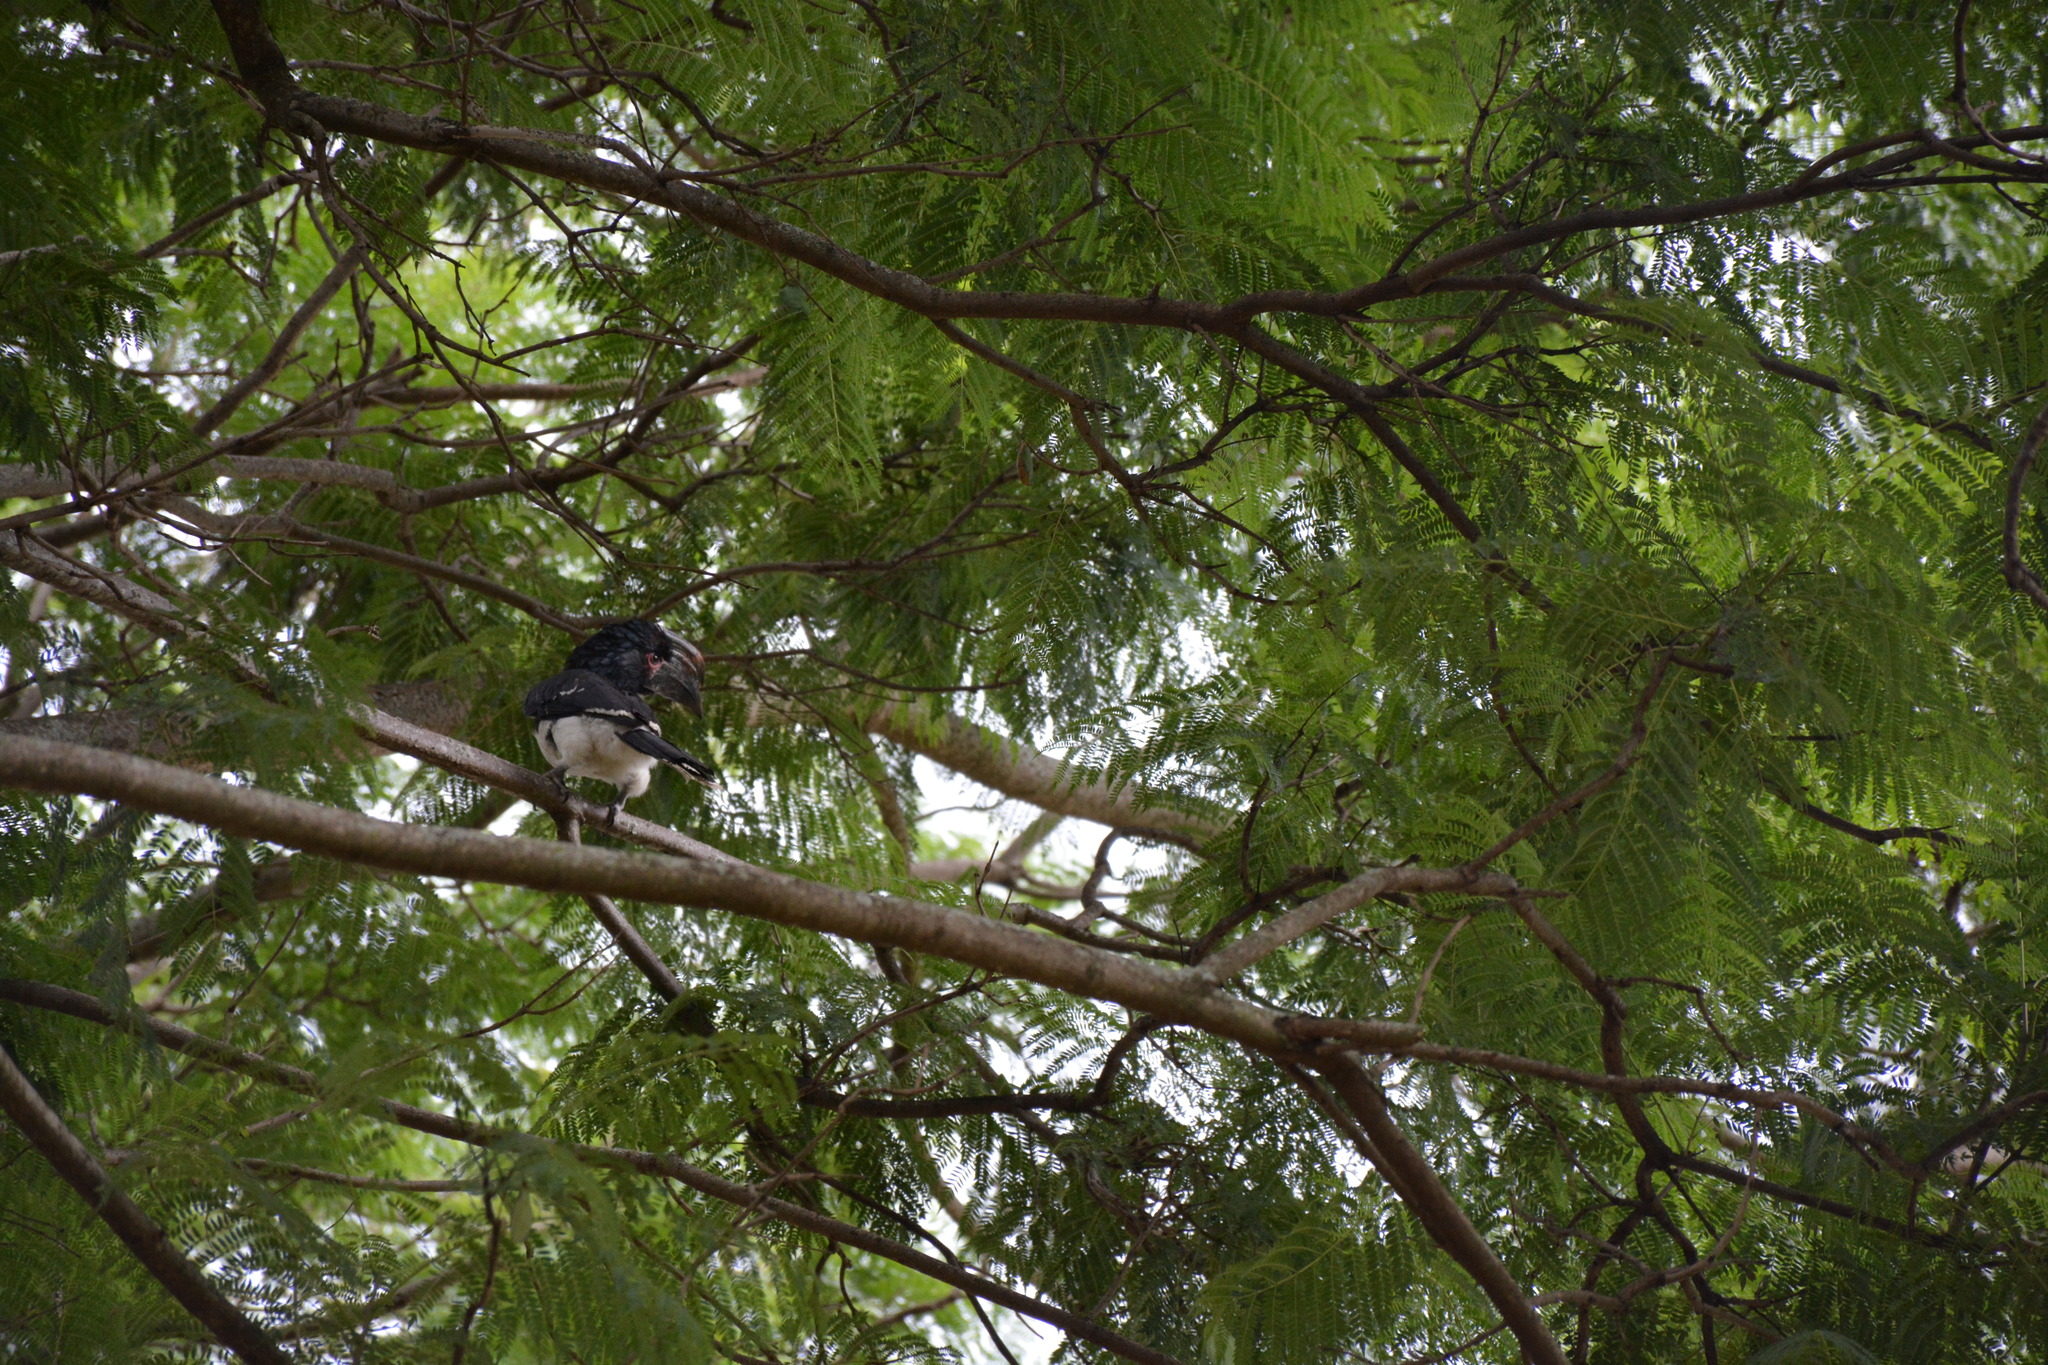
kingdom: Animalia
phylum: Chordata
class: Aves
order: Bucerotiformes
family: Bucerotidae
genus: Bycanistes
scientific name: Bycanistes bucinator
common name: Trumpeter hornbill
